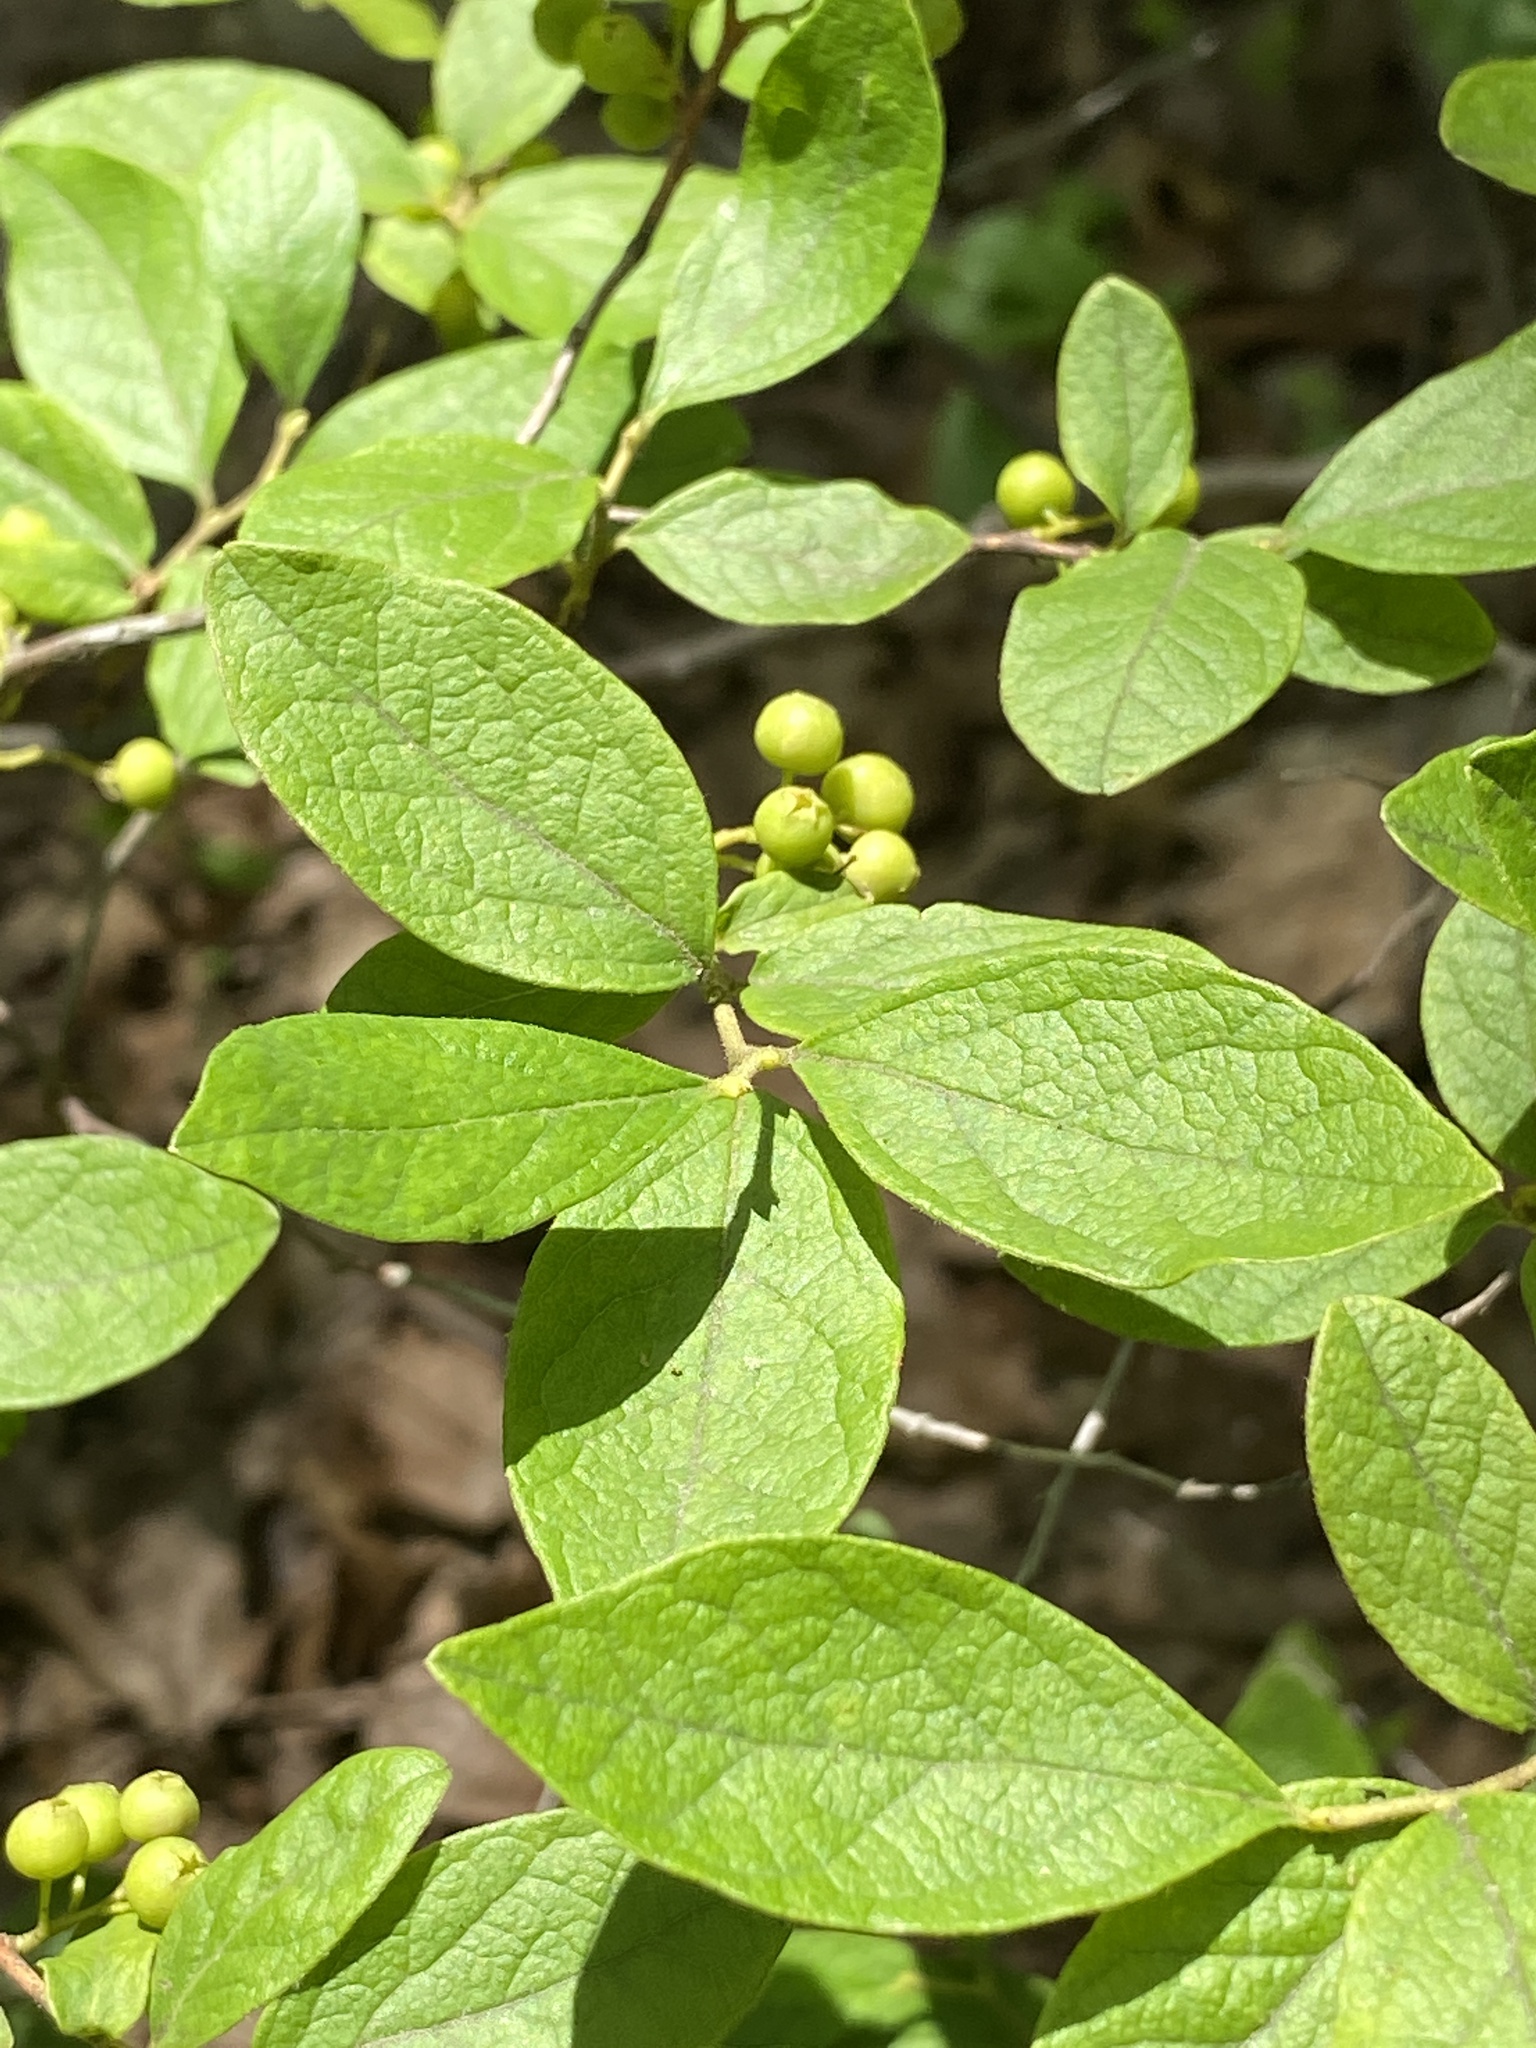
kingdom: Plantae
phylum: Tracheophyta
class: Magnoliopsida
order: Ericales
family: Ericaceae
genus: Gaylussacia
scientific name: Gaylussacia baccata
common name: Black huckleberry
